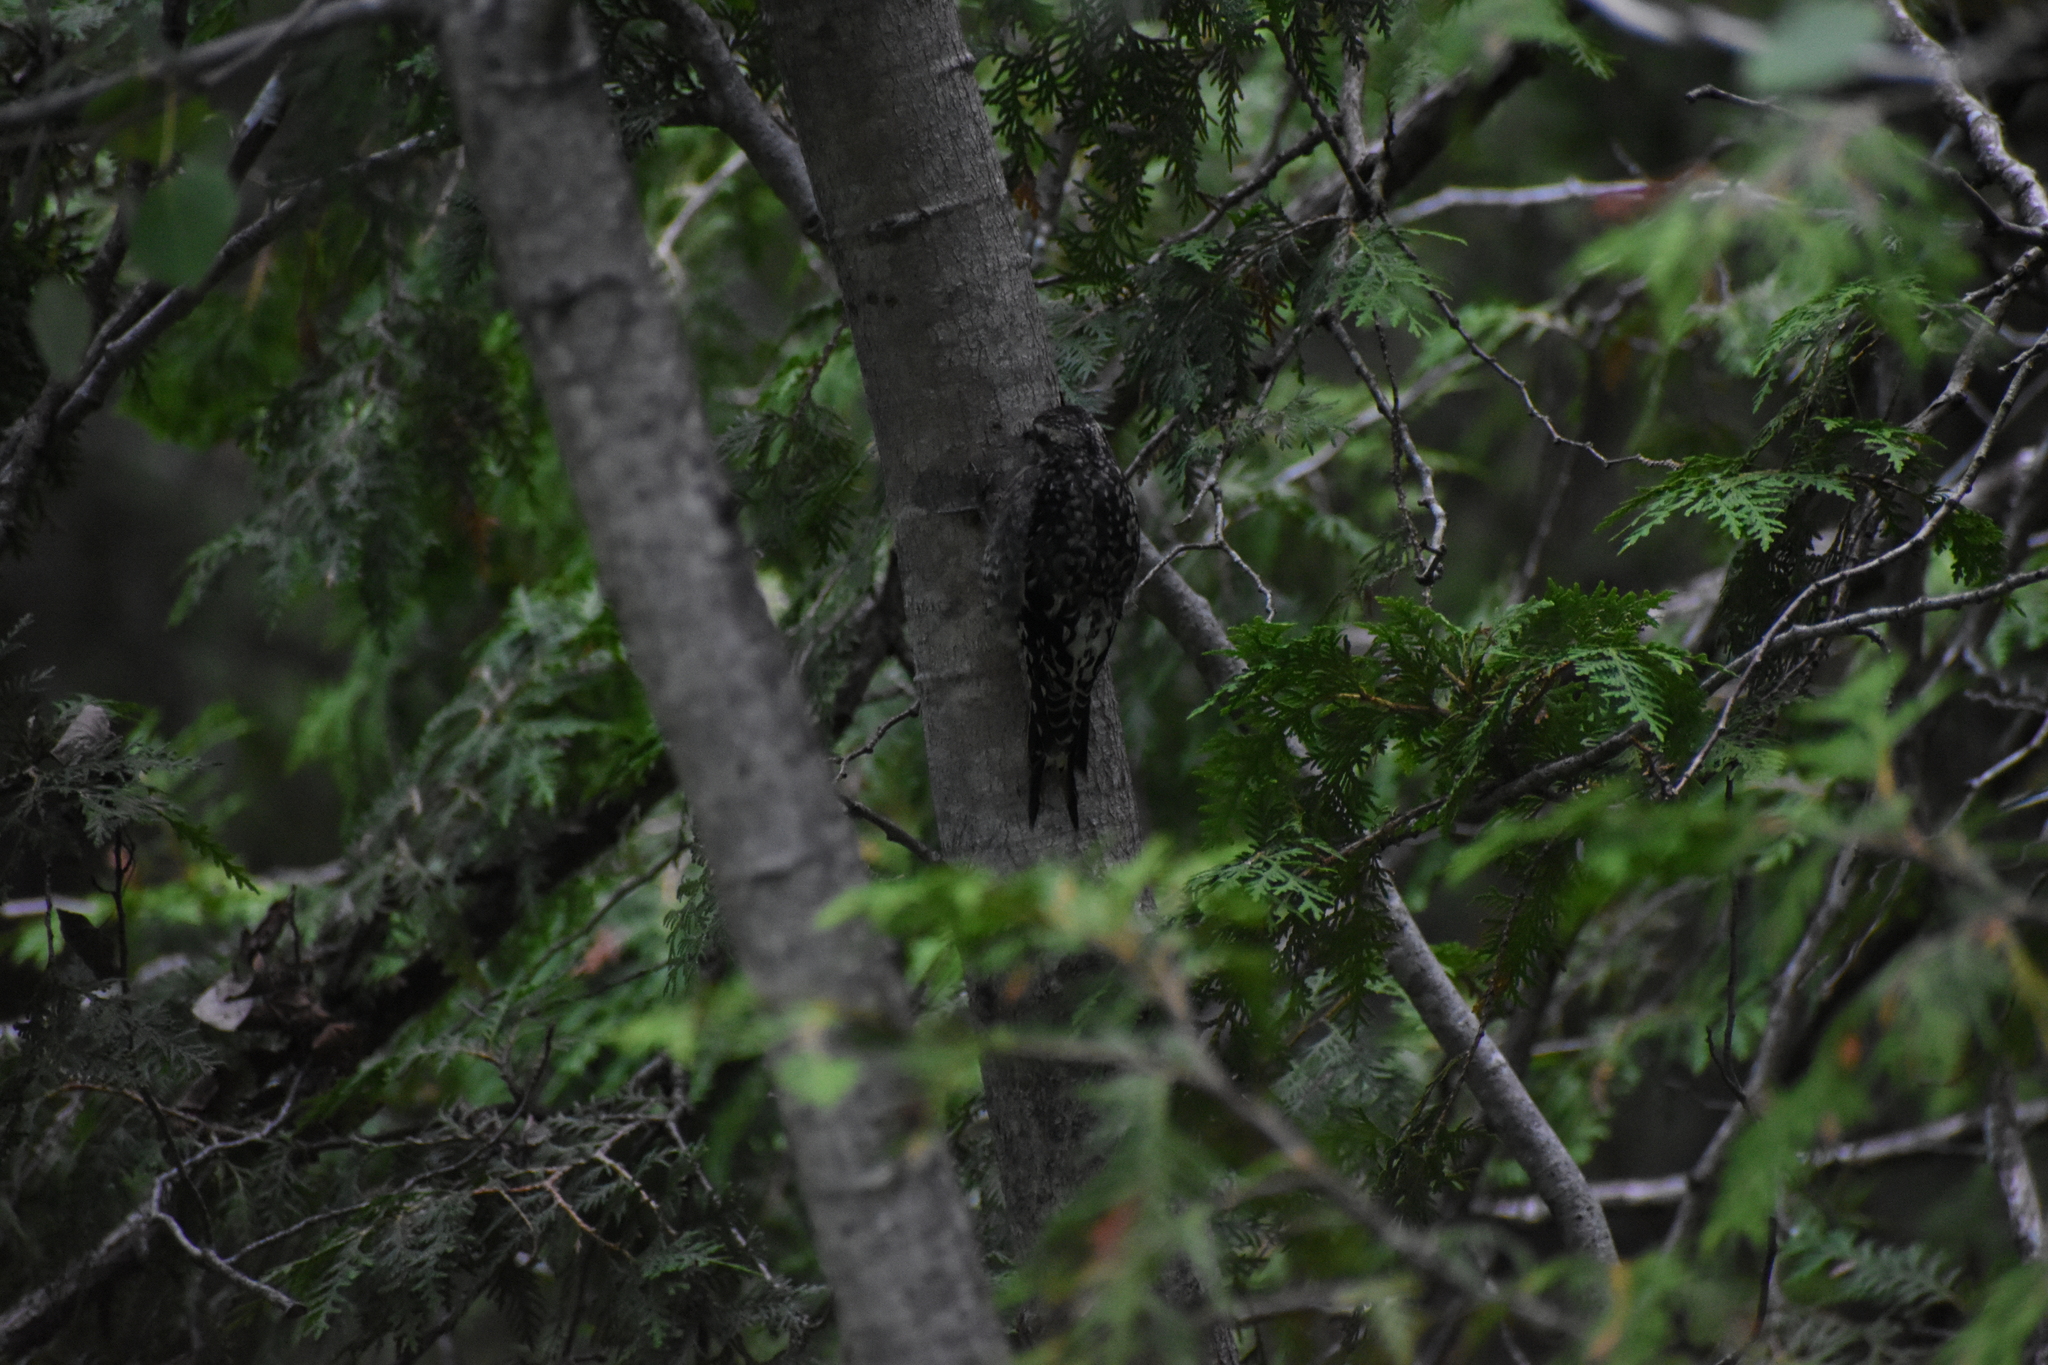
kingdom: Animalia
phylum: Chordata
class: Aves
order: Piciformes
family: Picidae
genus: Sphyrapicus
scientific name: Sphyrapicus varius
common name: Yellow-bellied sapsucker
